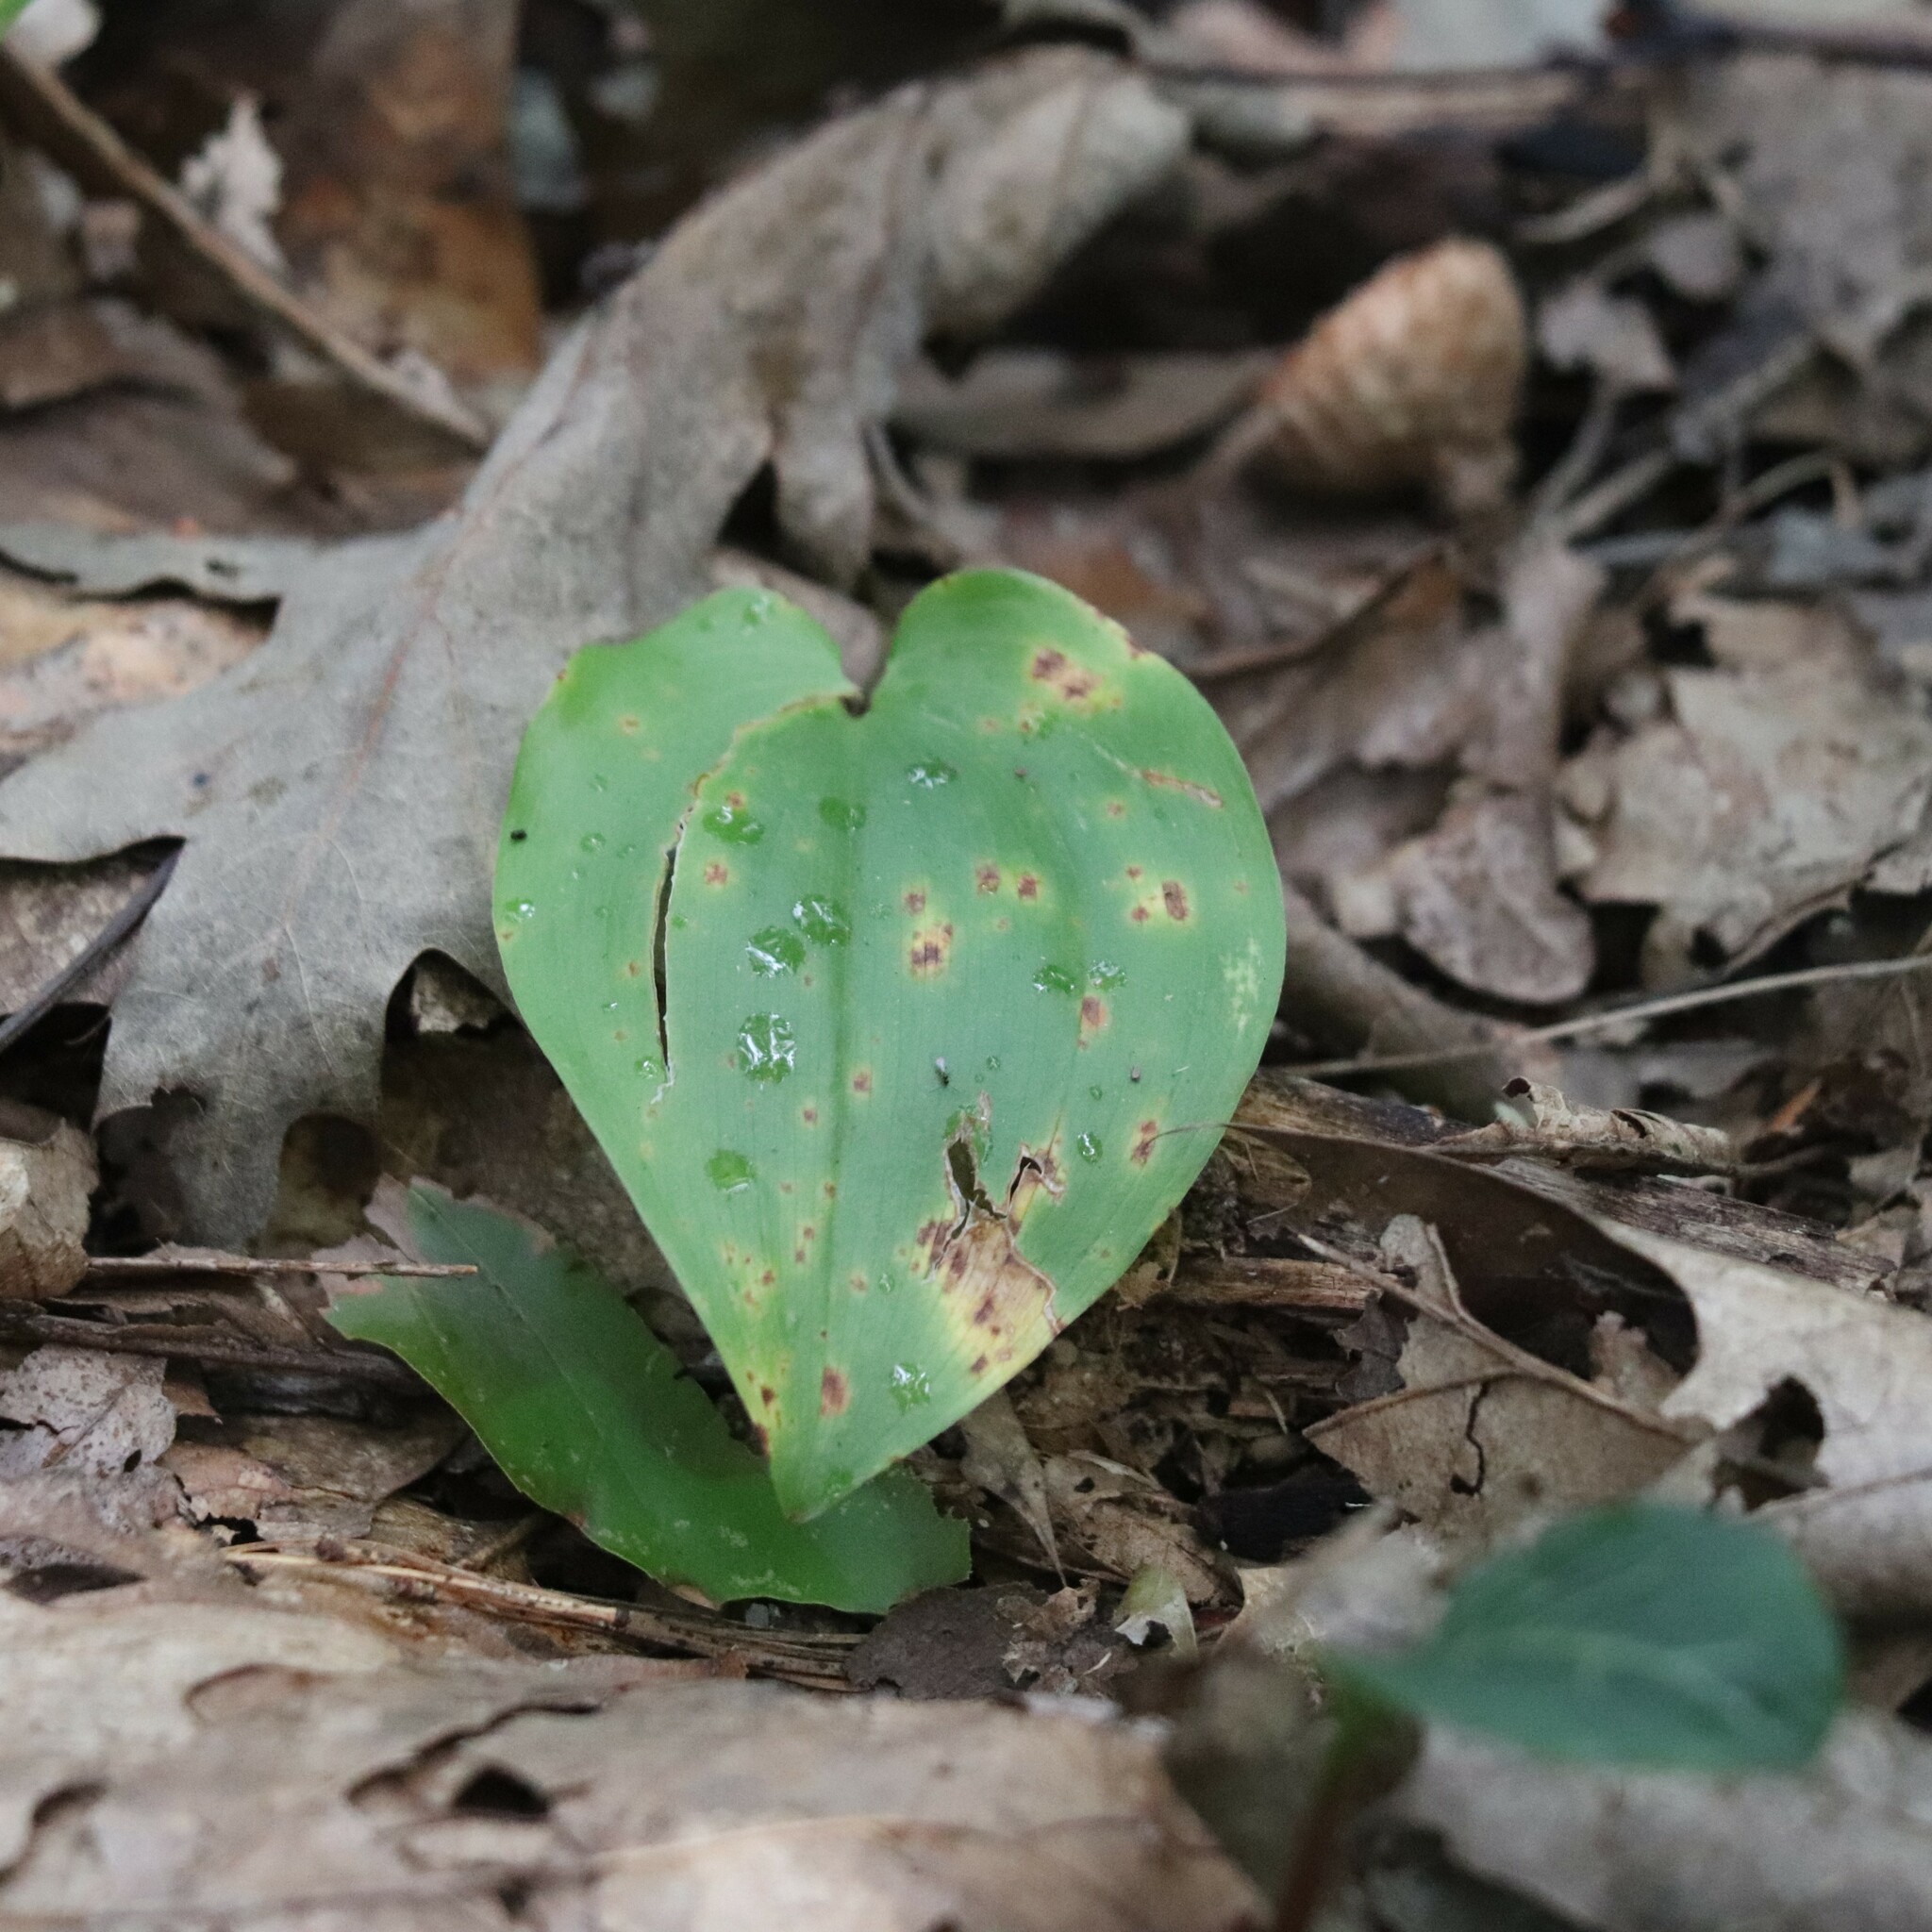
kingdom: Plantae
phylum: Tracheophyta
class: Liliopsida
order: Asparagales
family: Asparagaceae
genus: Maianthemum
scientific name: Maianthemum canadense
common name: False lily-of-the-valley
